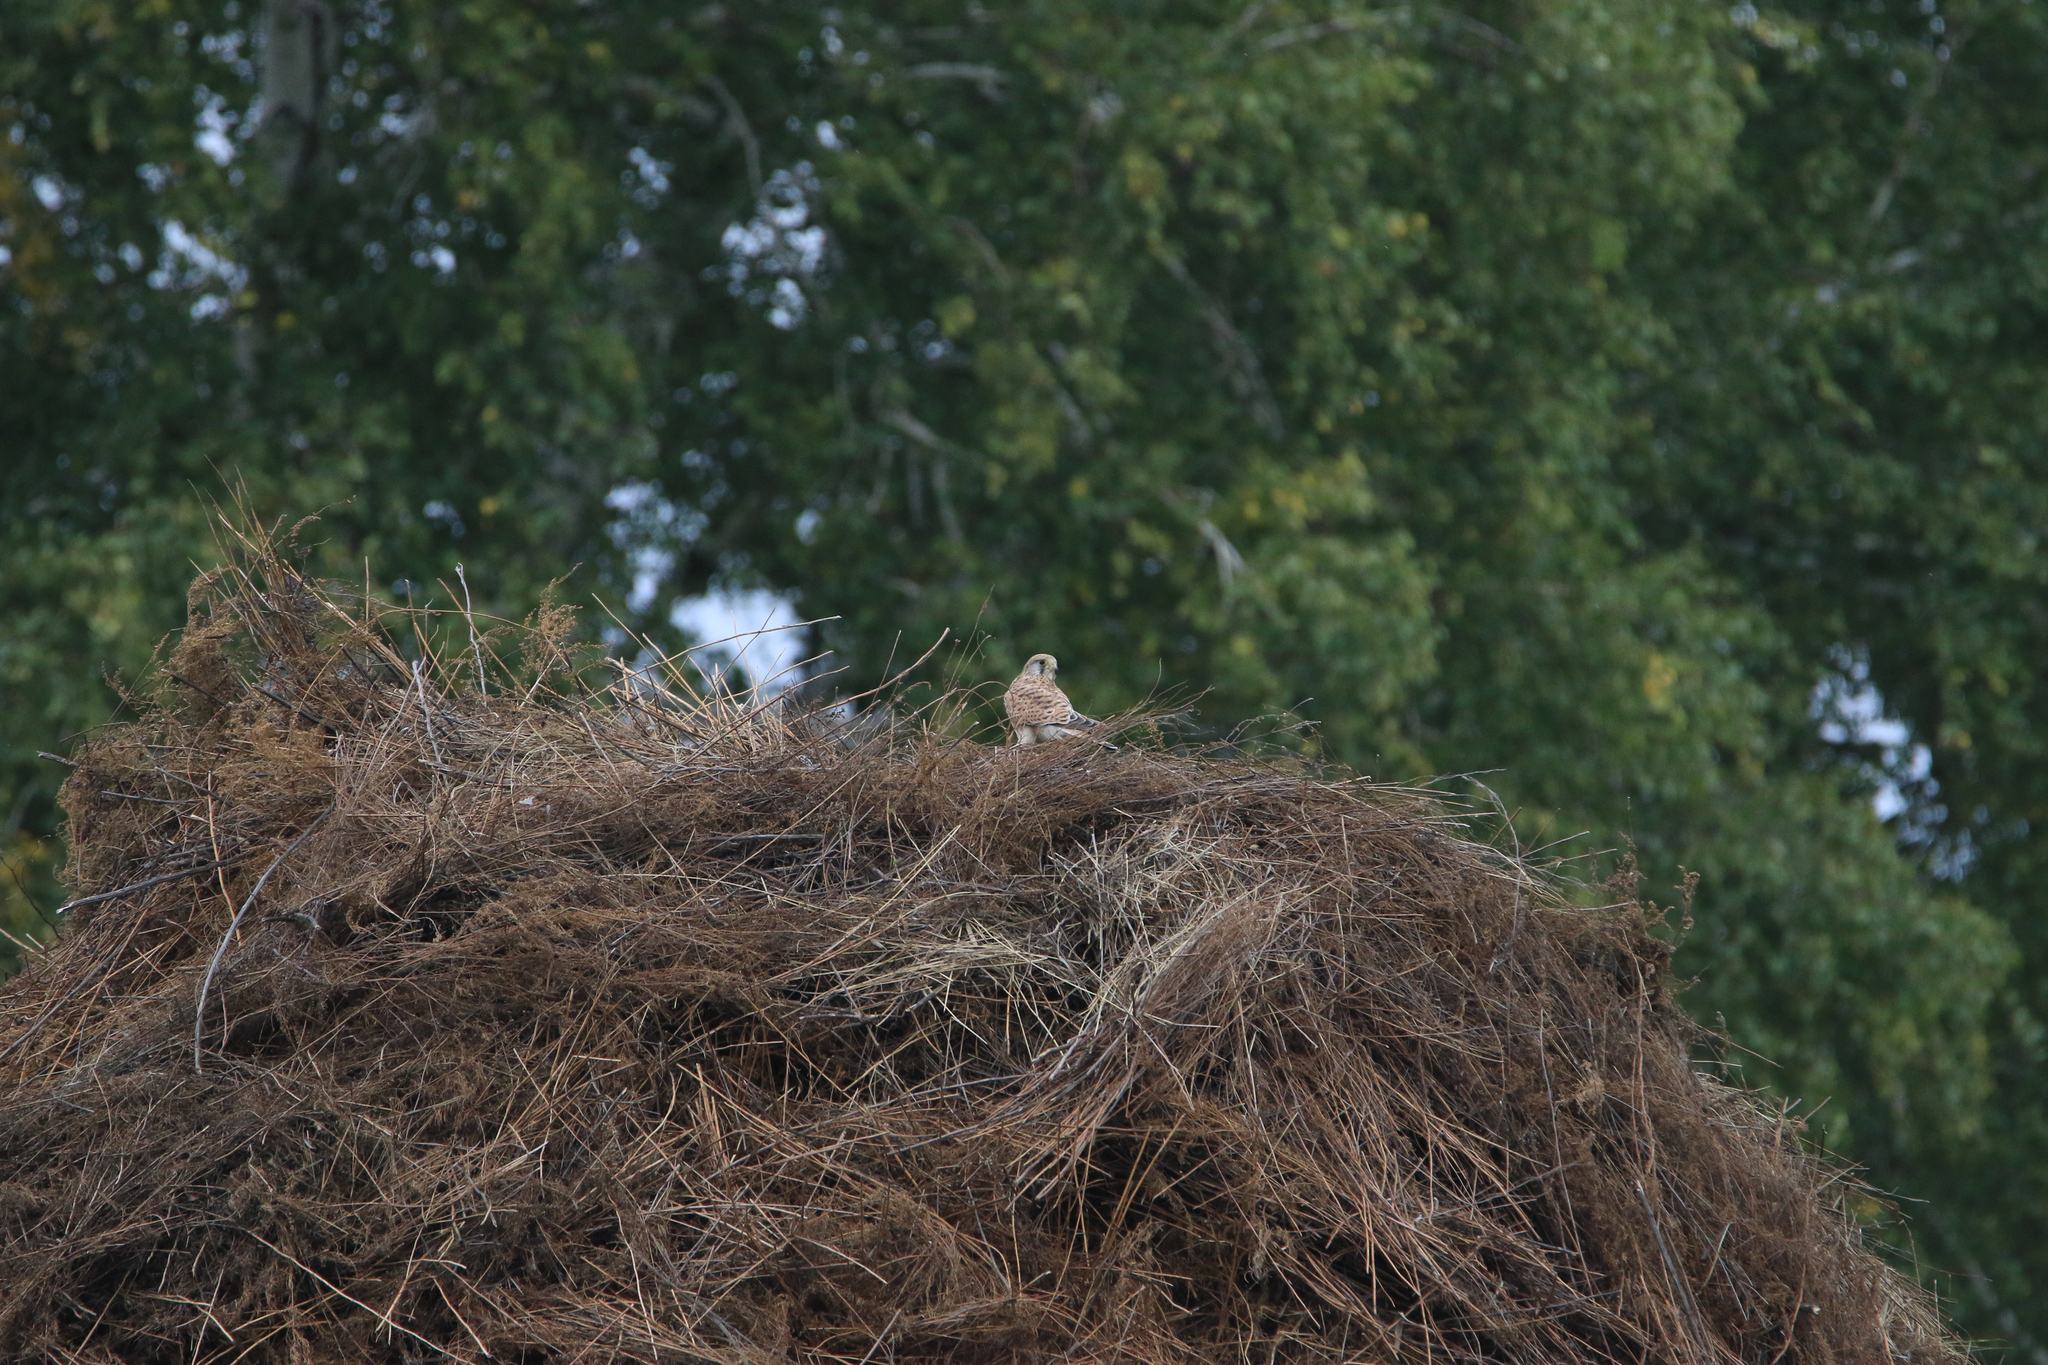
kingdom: Animalia
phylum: Chordata
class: Aves
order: Falconiformes
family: Falconidae
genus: Falco
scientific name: Falco tinnunculus
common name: Common kestrel
